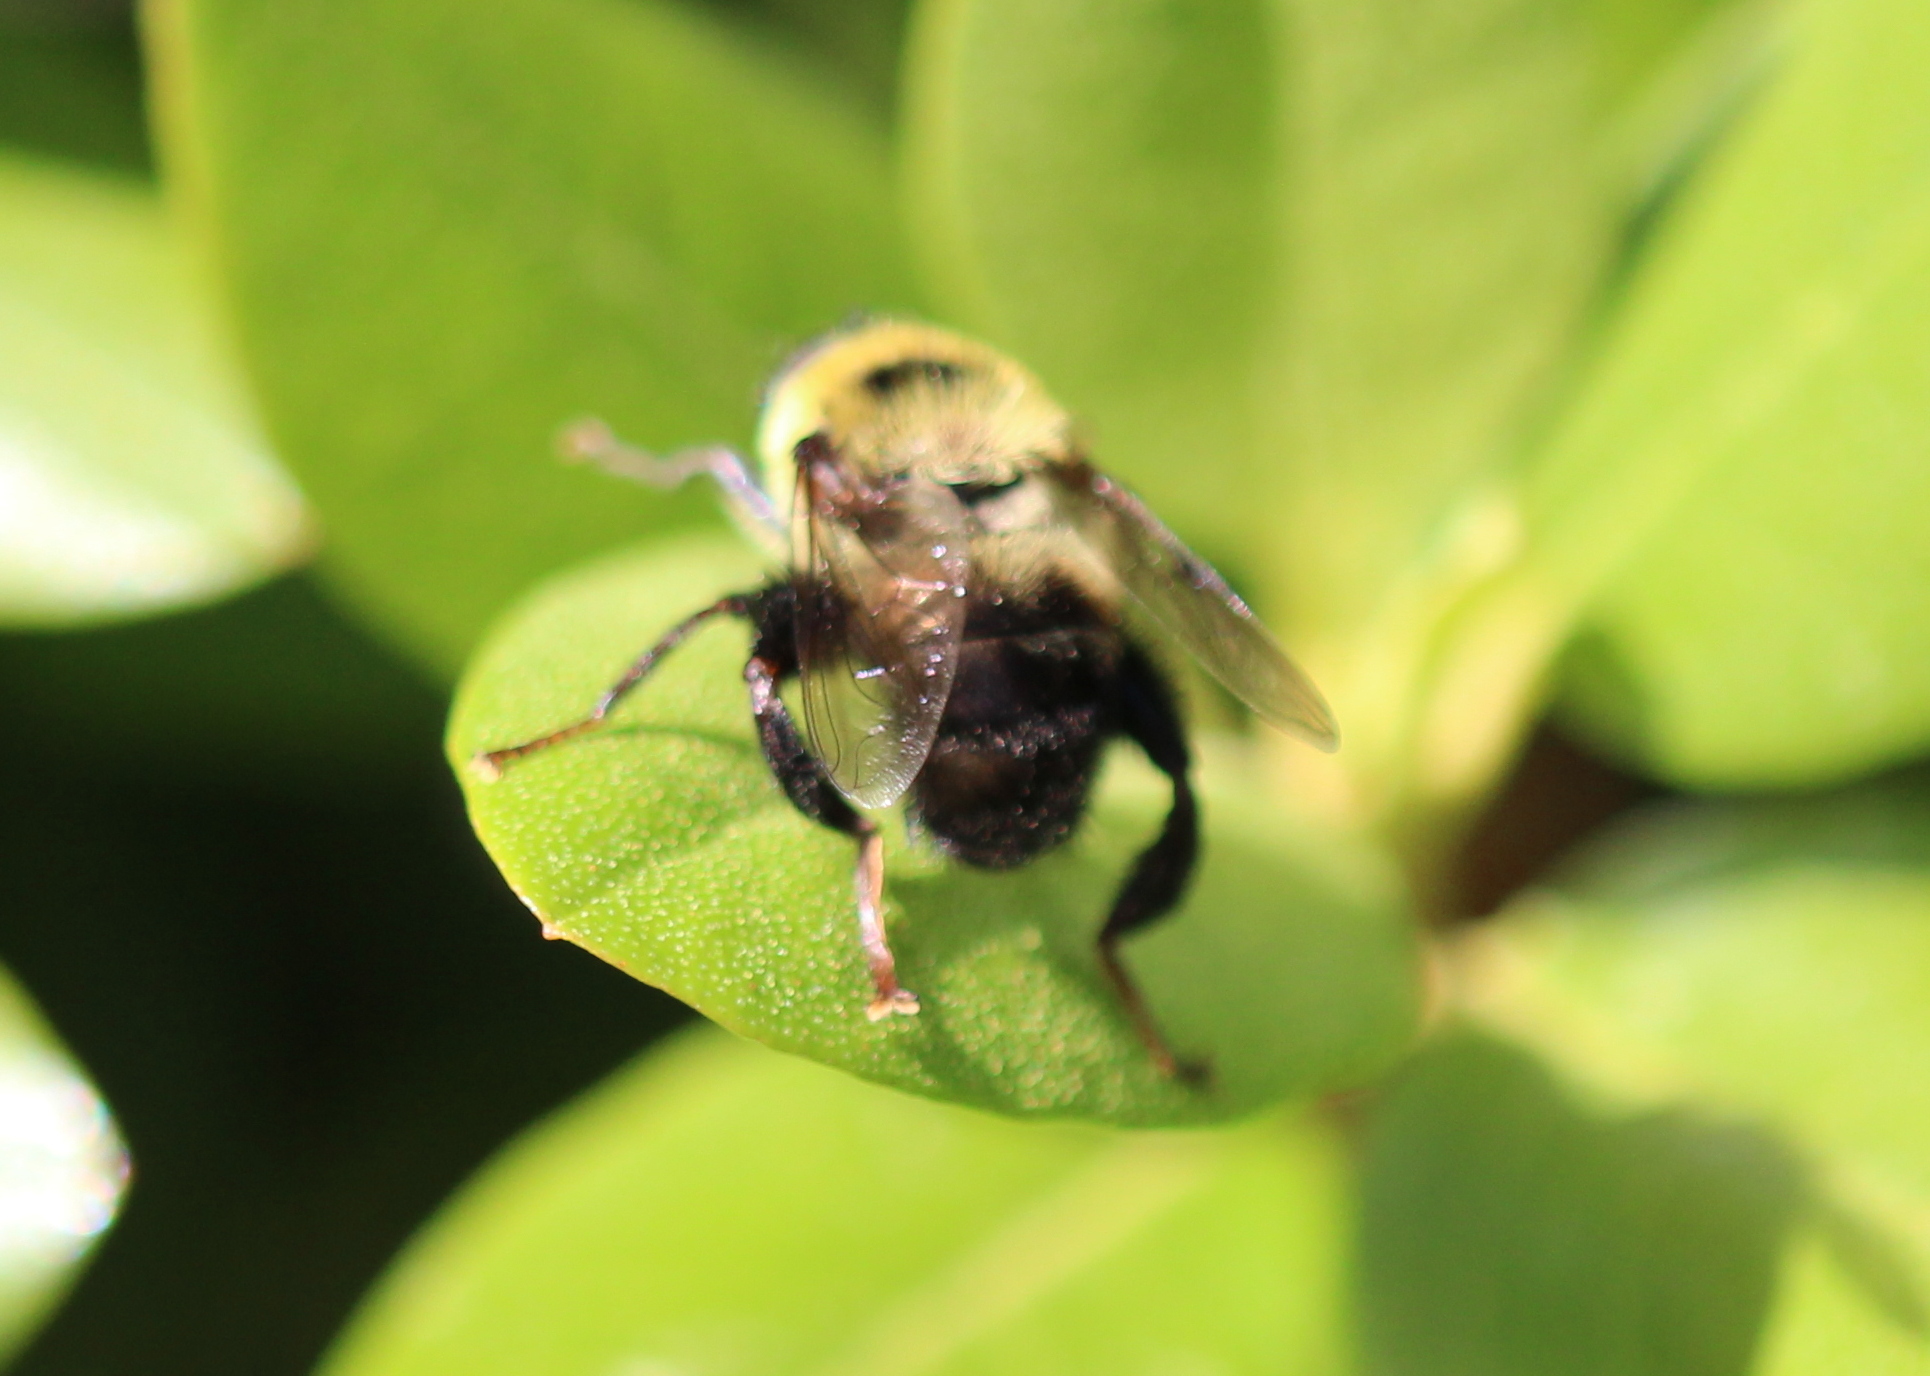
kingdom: Animalia
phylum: Arthropoda
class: Insecta
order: Diptera
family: Syrphidae
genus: Imatisma
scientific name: Imatisma posticata
